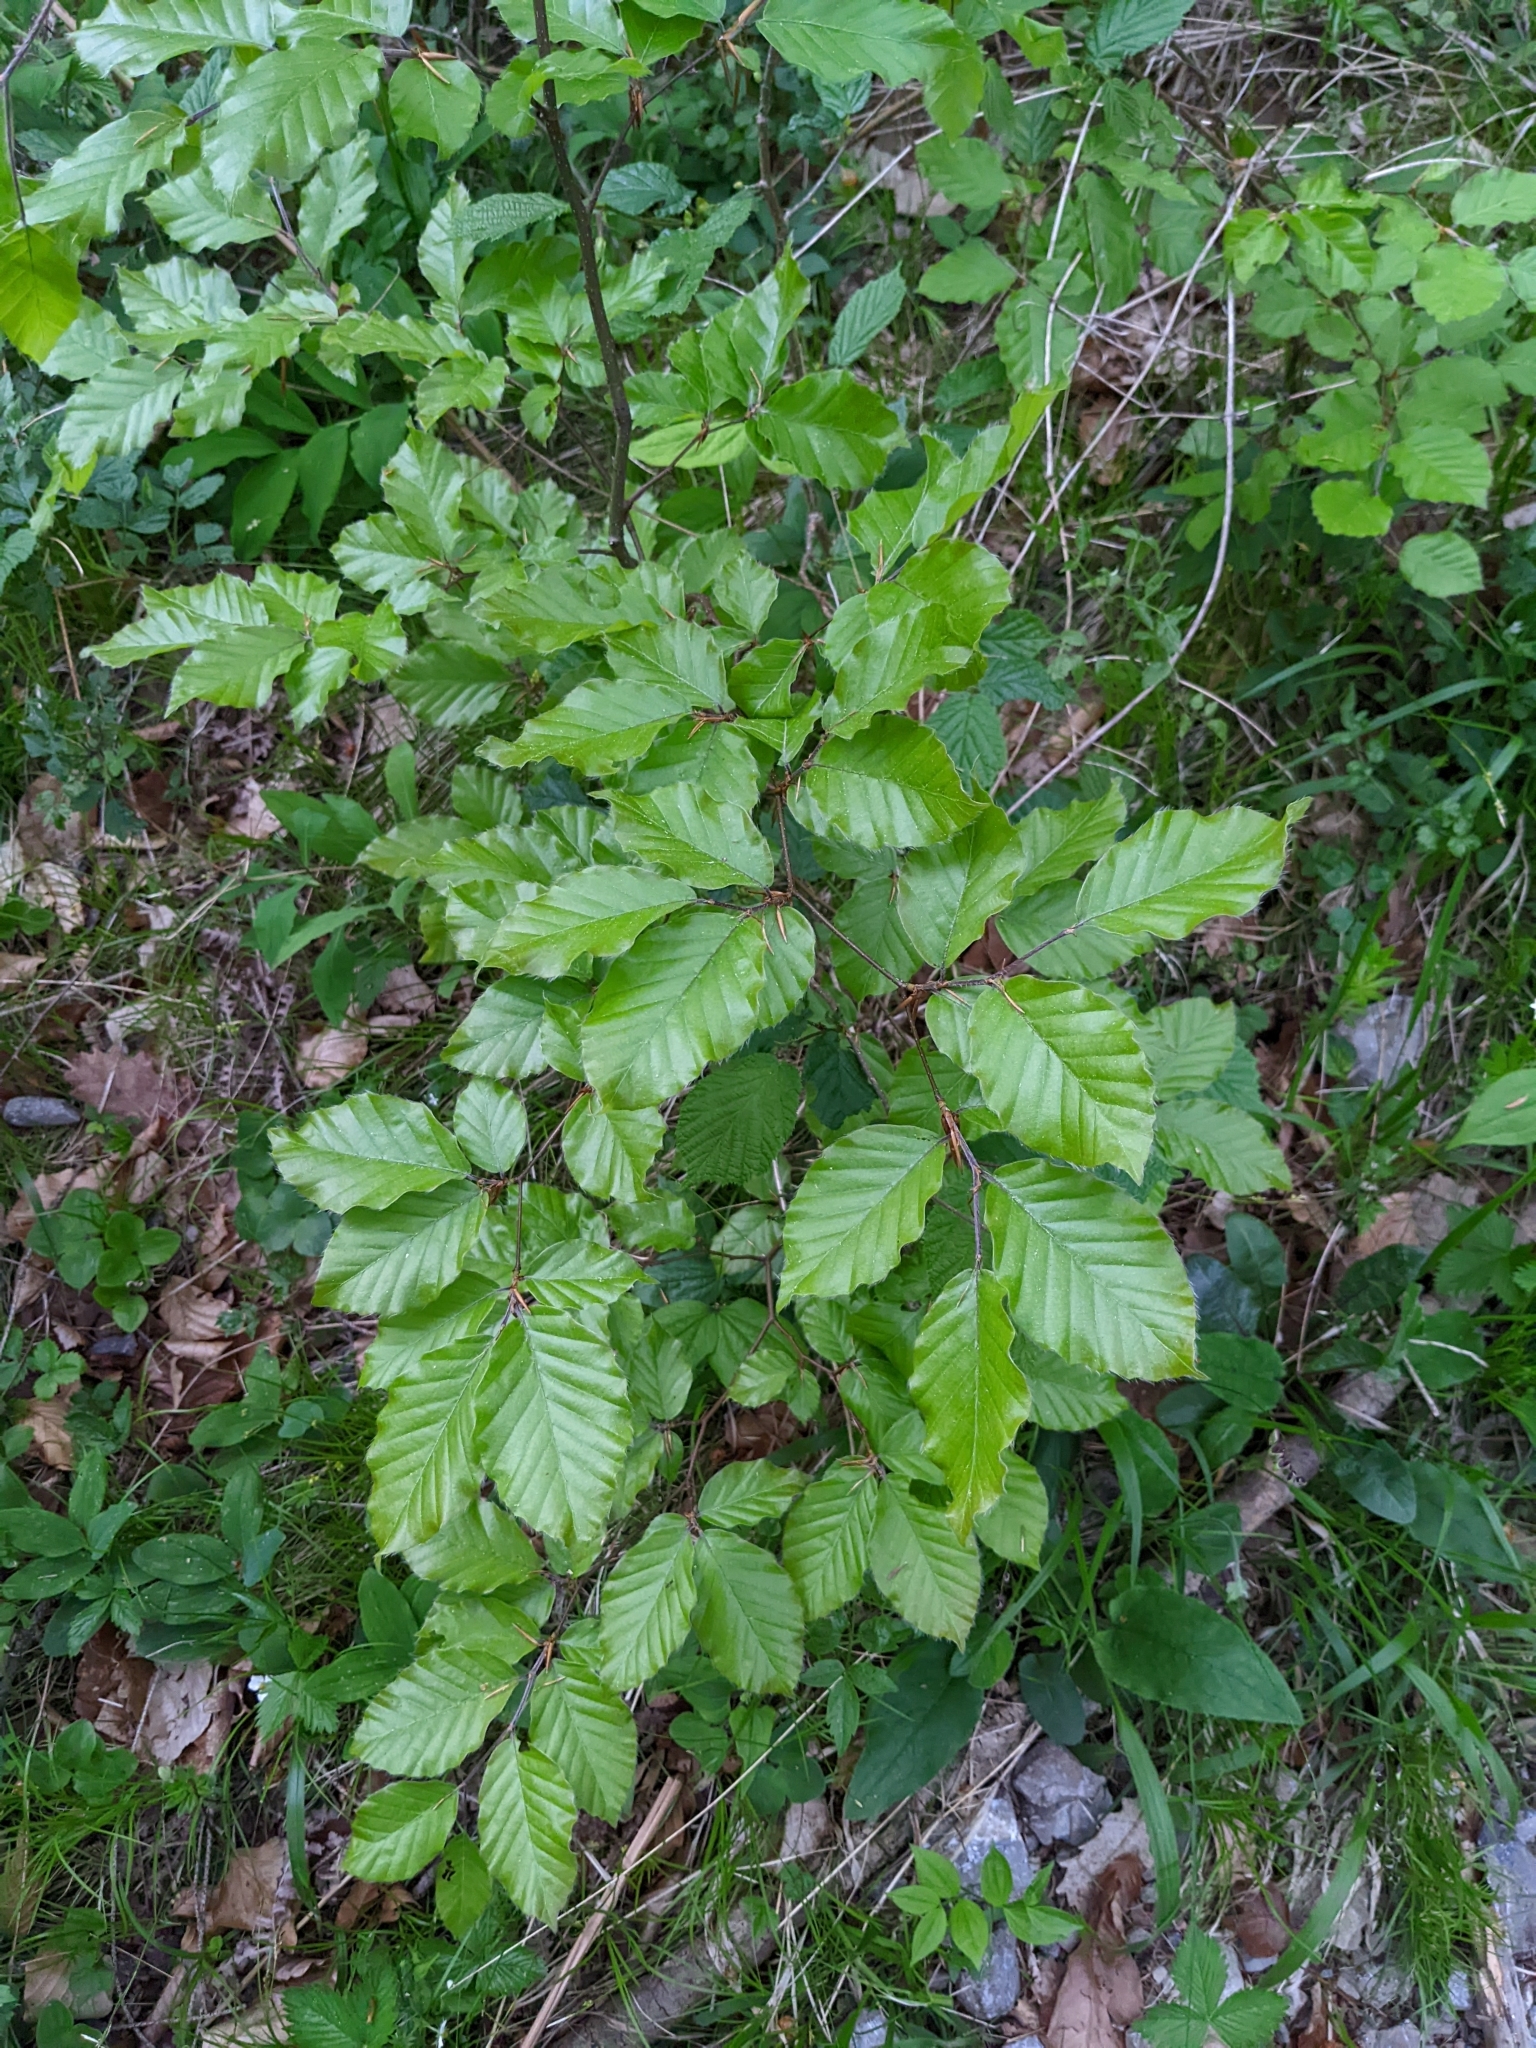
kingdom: Plantae
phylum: Tracheophyta
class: Magnoliopsida
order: Fagales
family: Fagaceae
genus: Fagus
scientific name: Fagus sylvatica
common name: Beech
